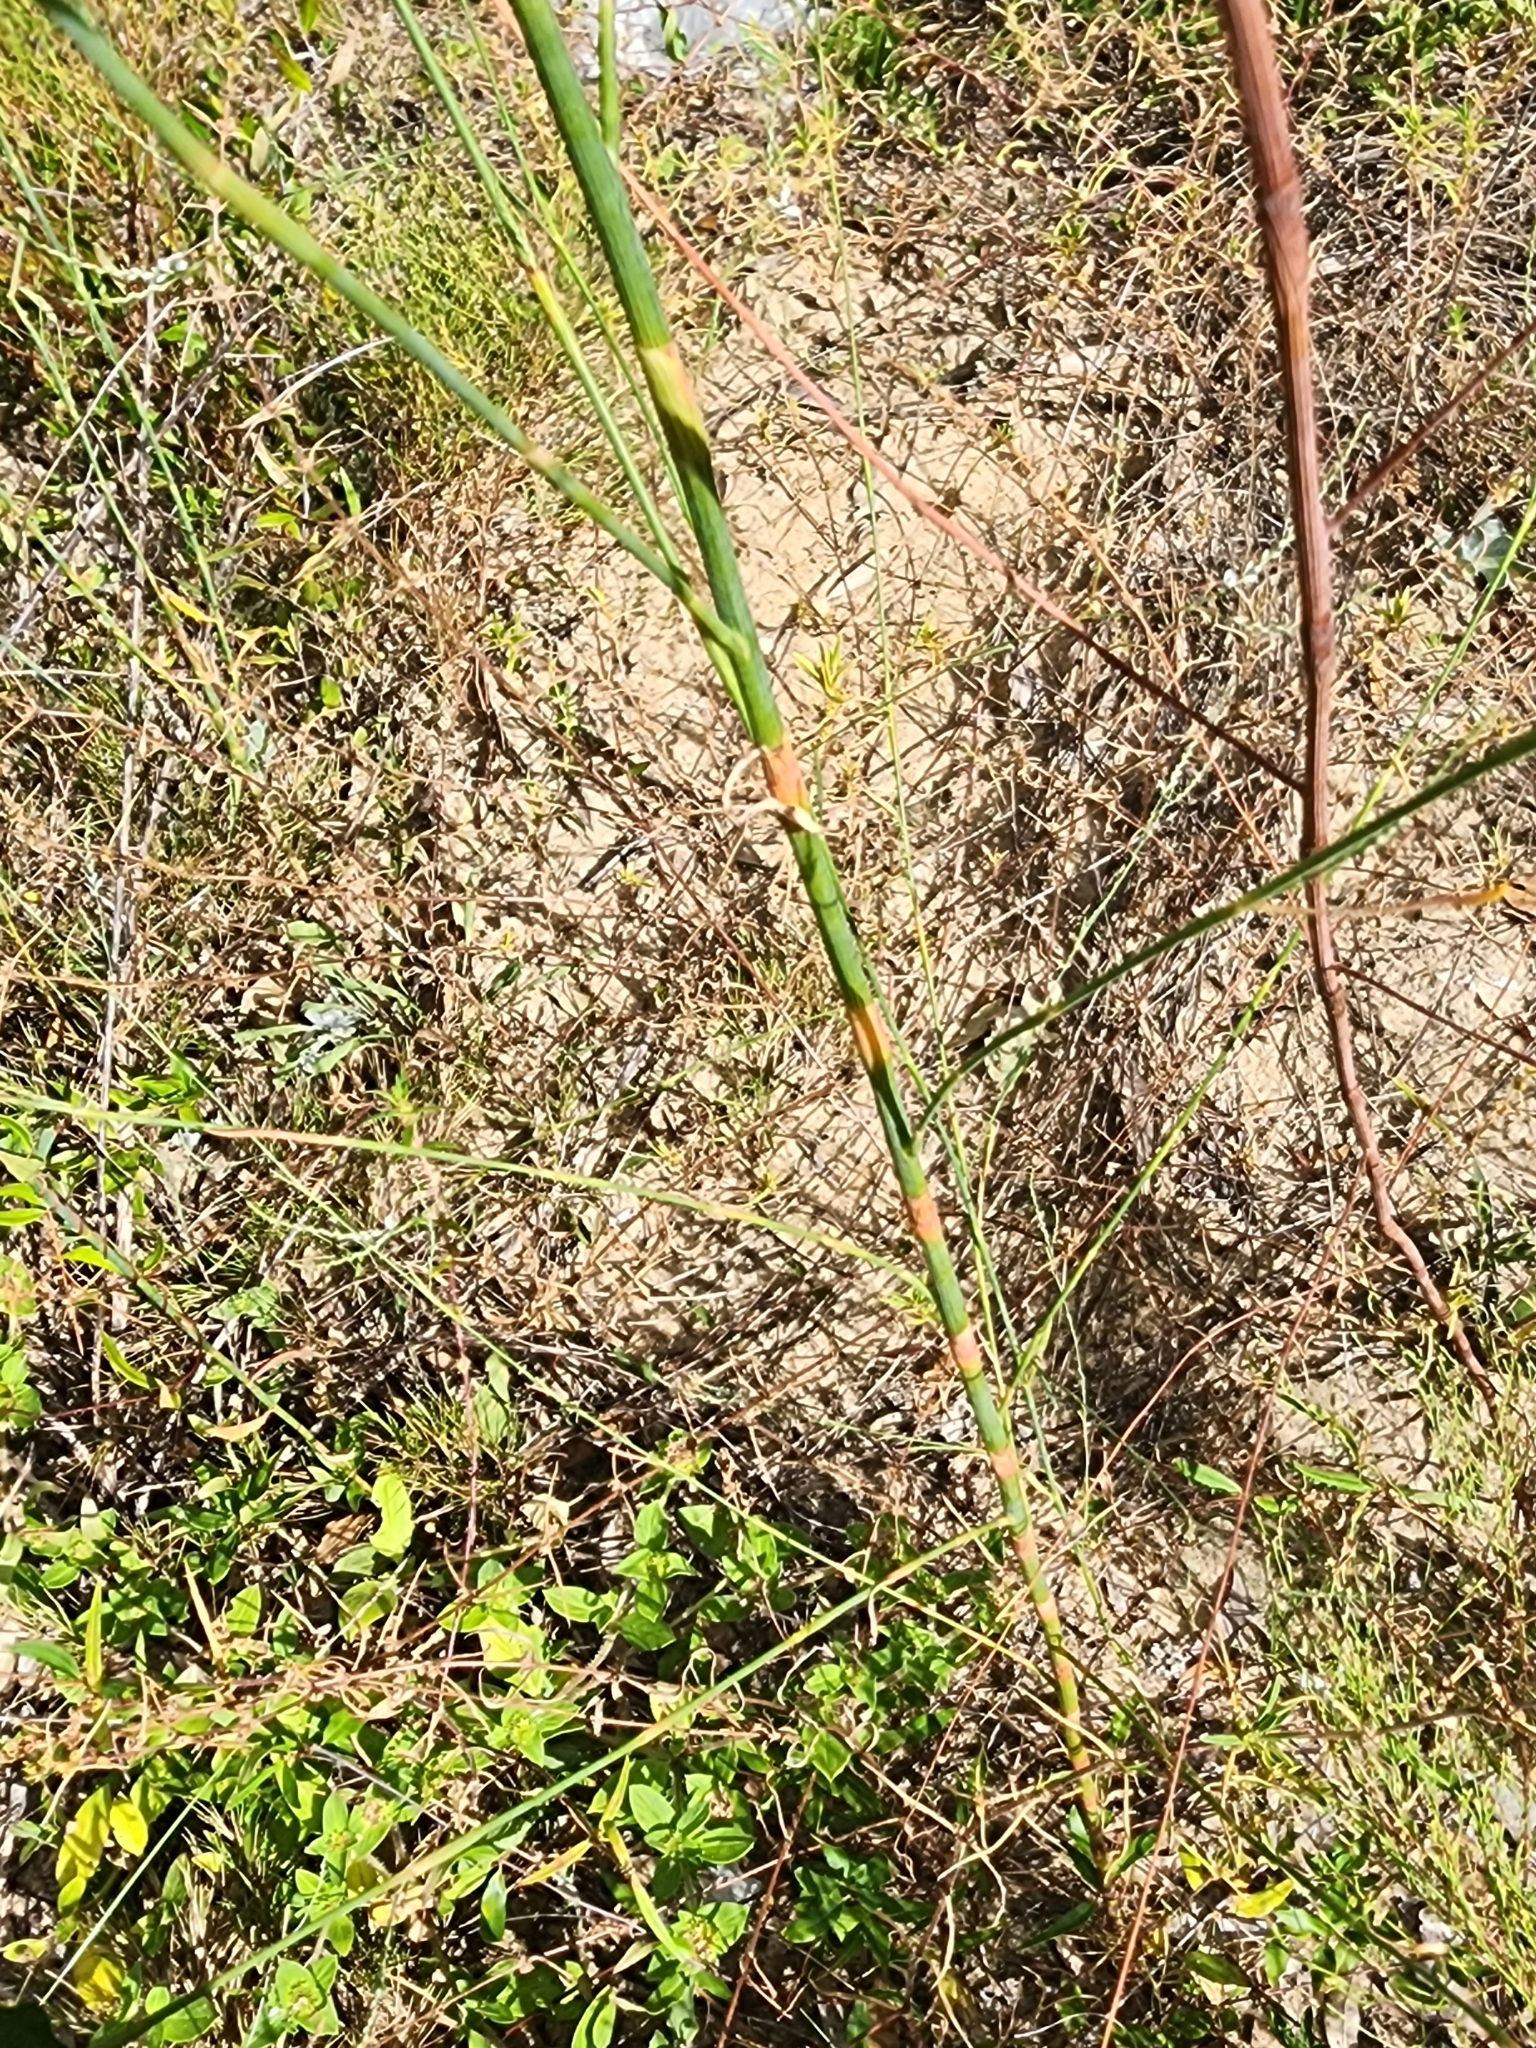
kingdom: Plantae
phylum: Tracheophyta
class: Magnoliopsida
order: Caryophyllales
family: Polygonaceae
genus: Polygonella
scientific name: Polygonella gracilis
